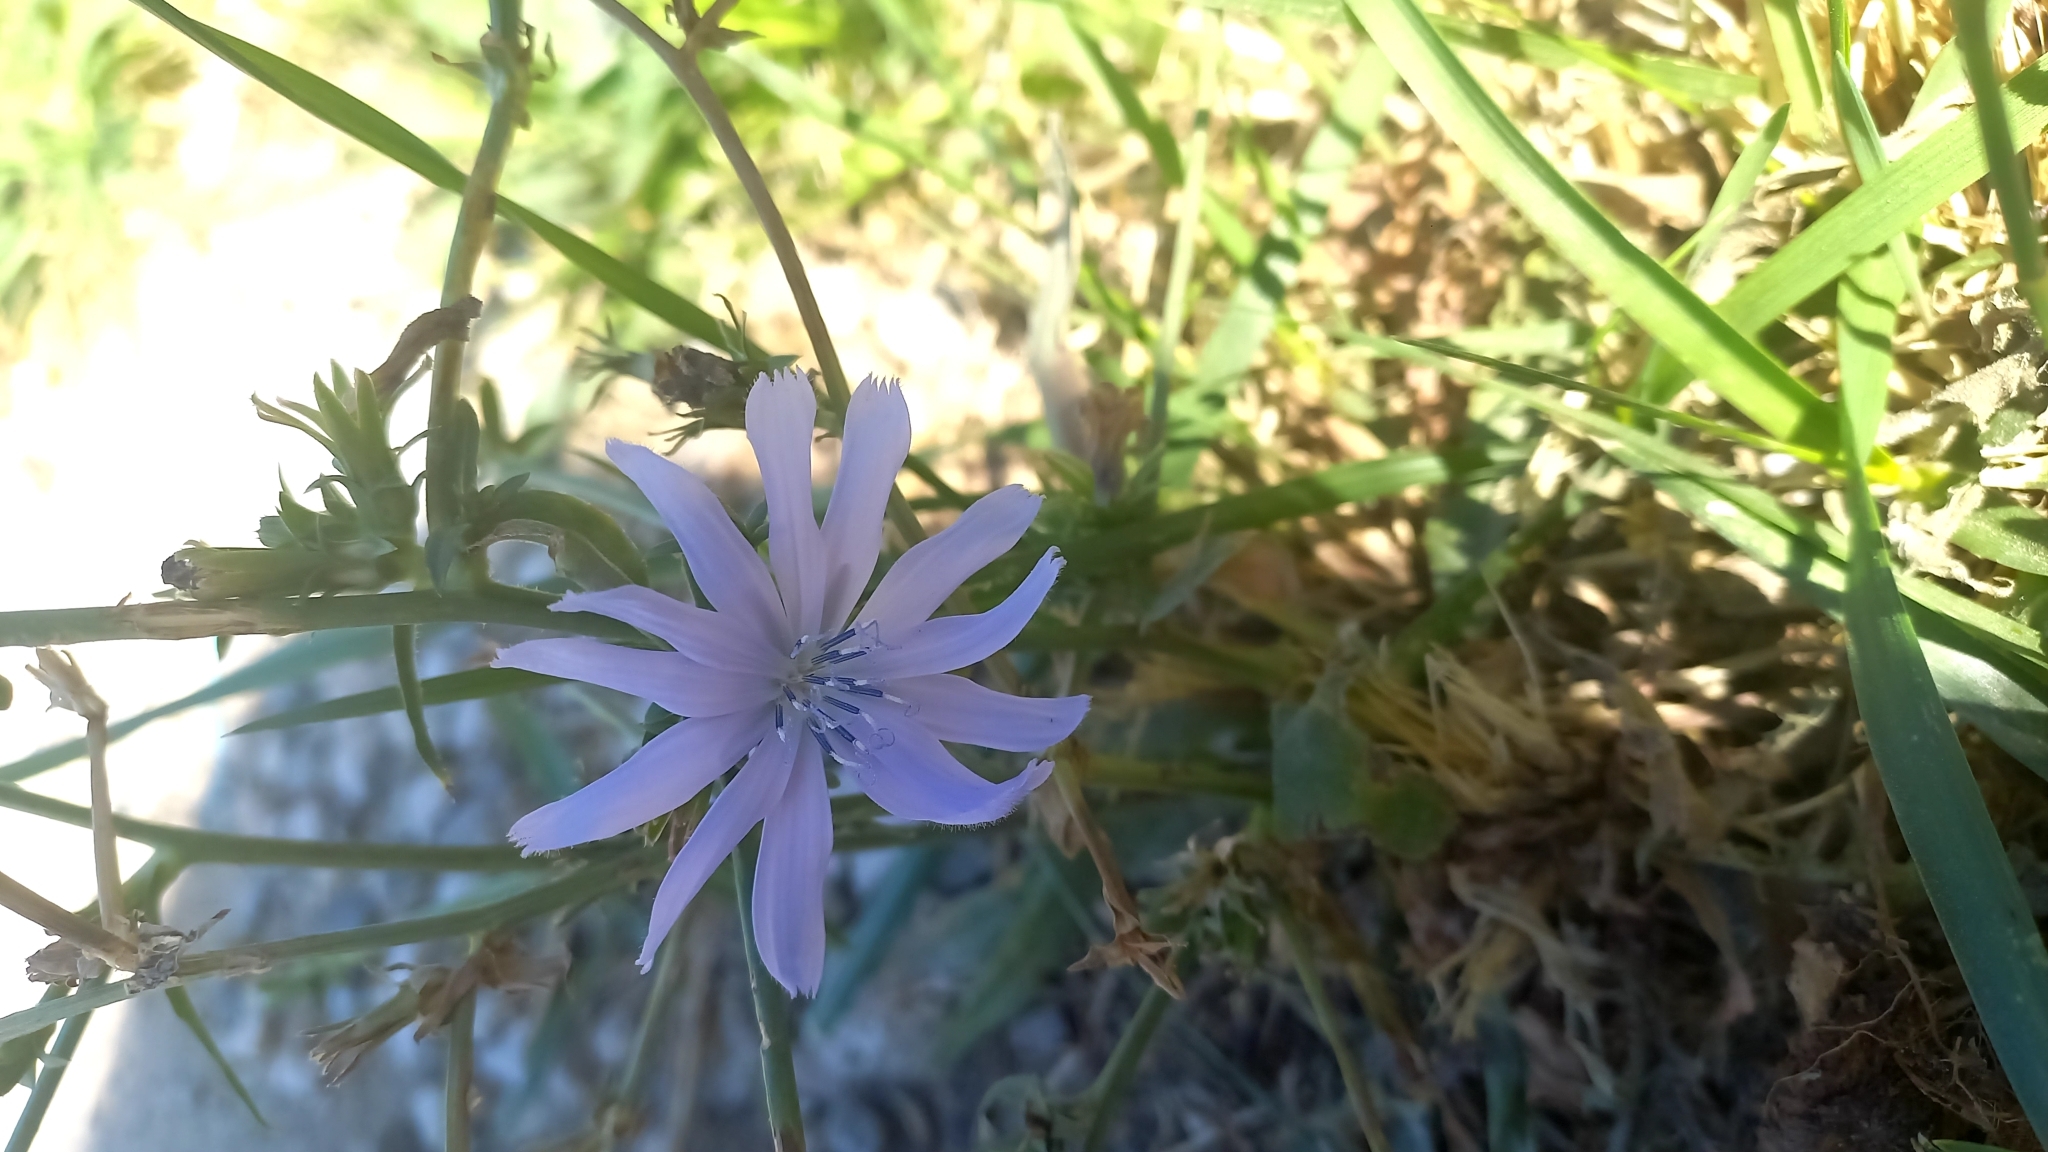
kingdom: Plantae
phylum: Tracheophyta
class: Magnoliopsida
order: Asterales
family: Asteraceae
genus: Cichorium
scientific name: Cichorium intybus
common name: Chicory
